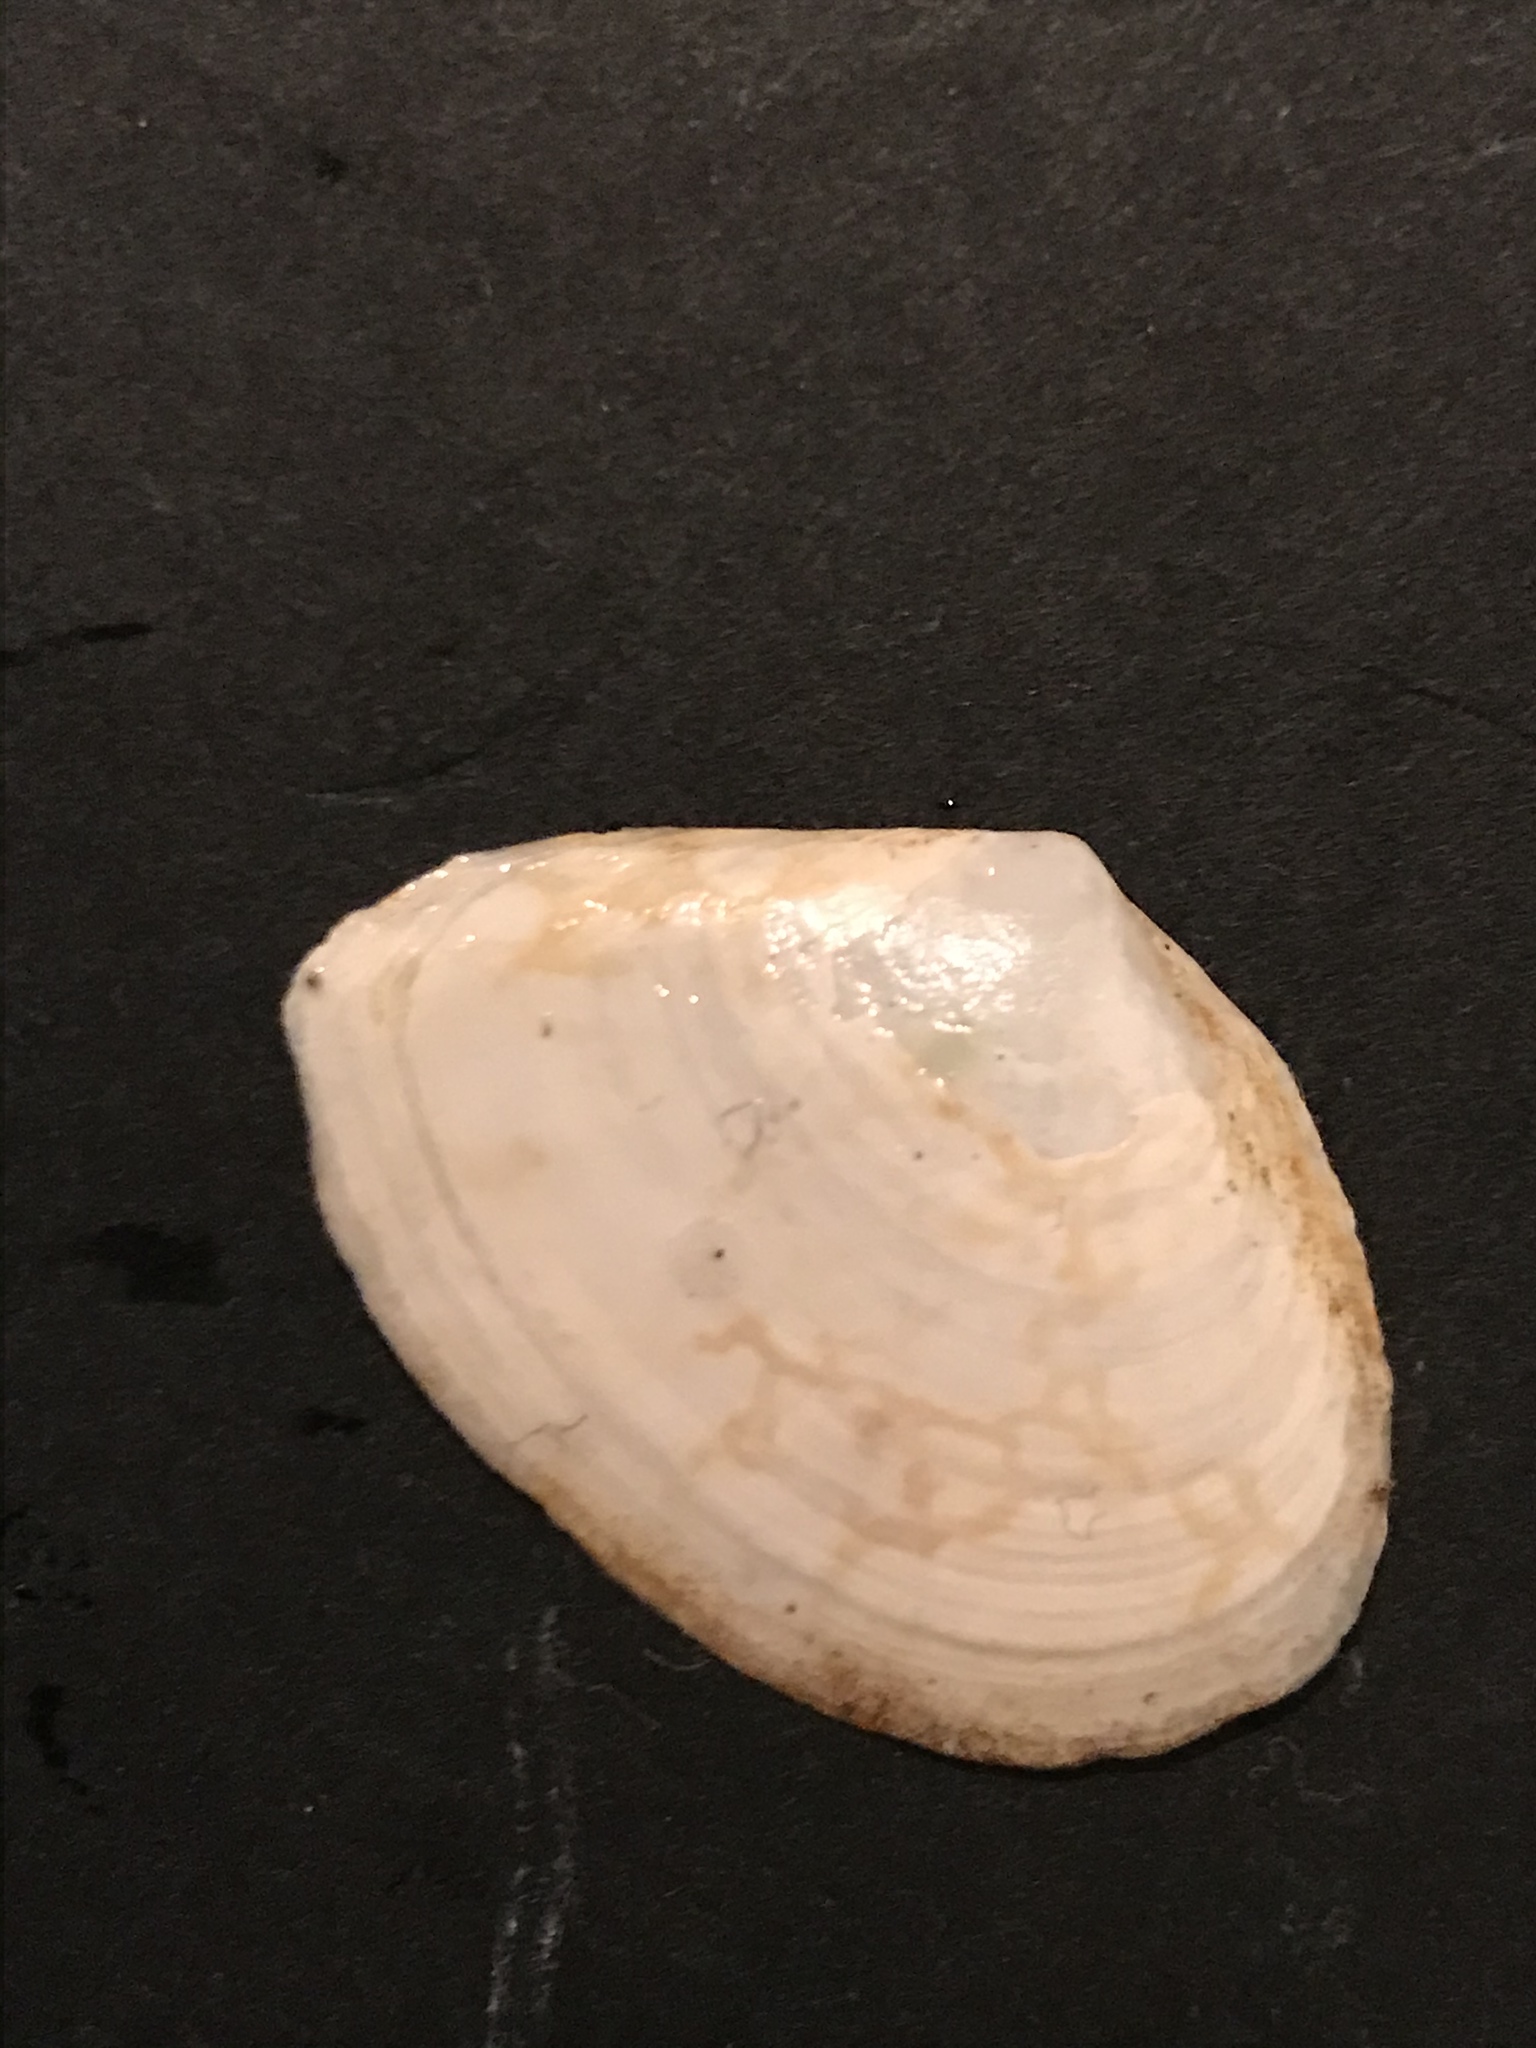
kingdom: Animalia
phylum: Mollusca
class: Bivalvia
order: Cardiida
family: Tellinidae
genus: Macoma
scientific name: Macoma nasuta
